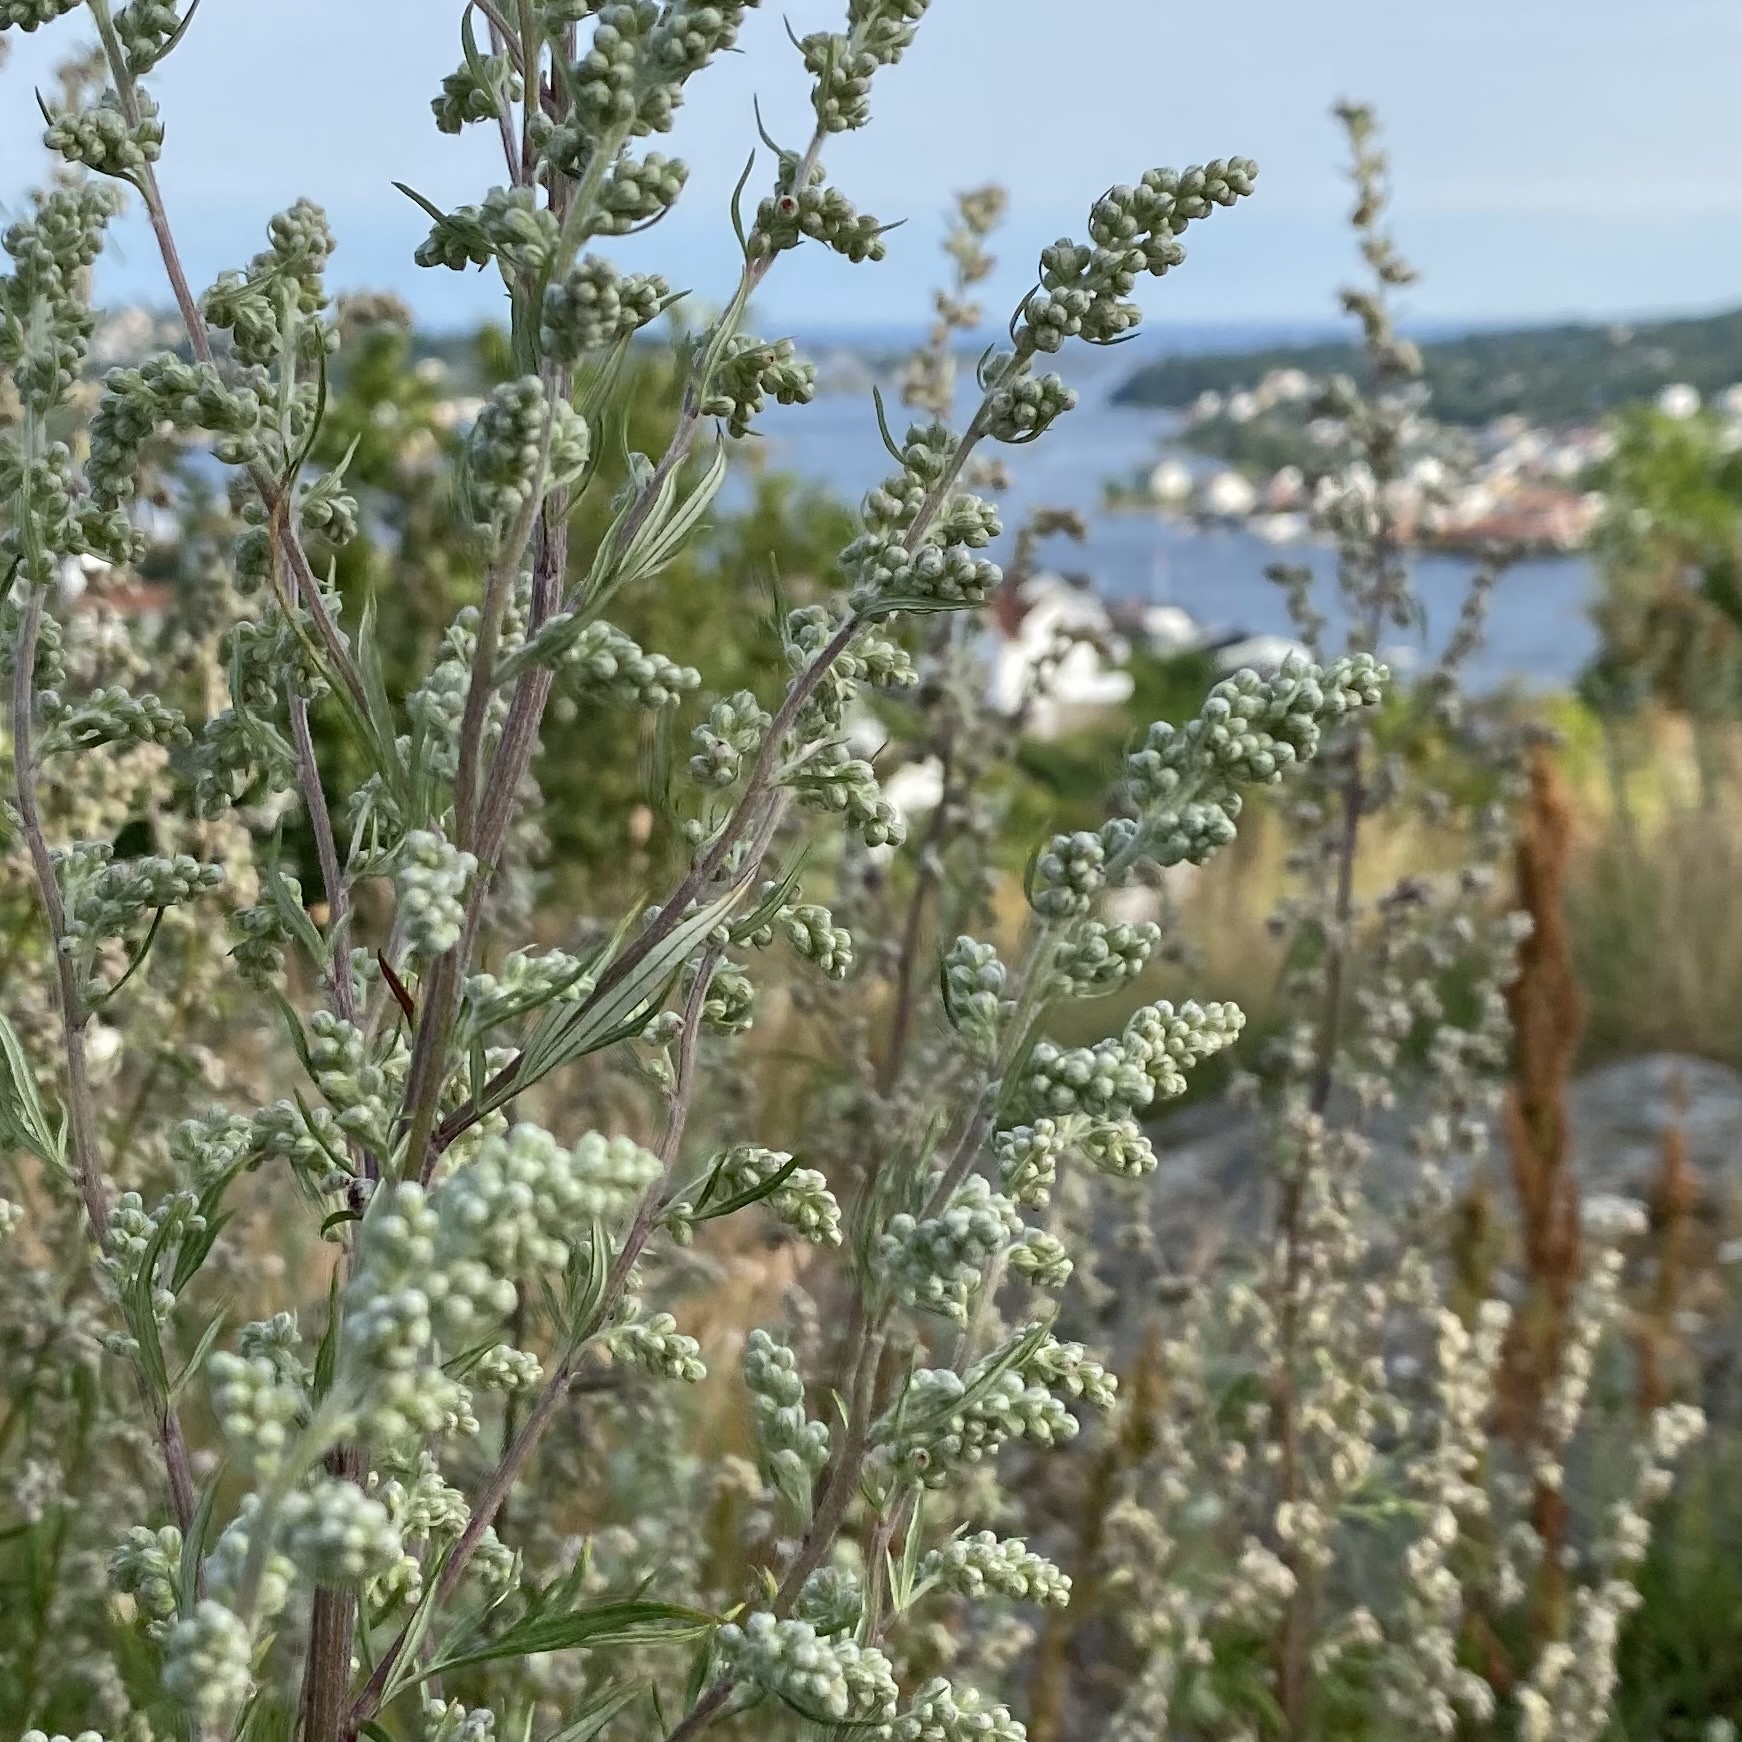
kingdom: Plantae
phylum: Tracheophyta
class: Magnoliopsida
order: Asterales
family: Asteraceae
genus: Artemisia
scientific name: Artemisia vulgaris
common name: Mugwort
